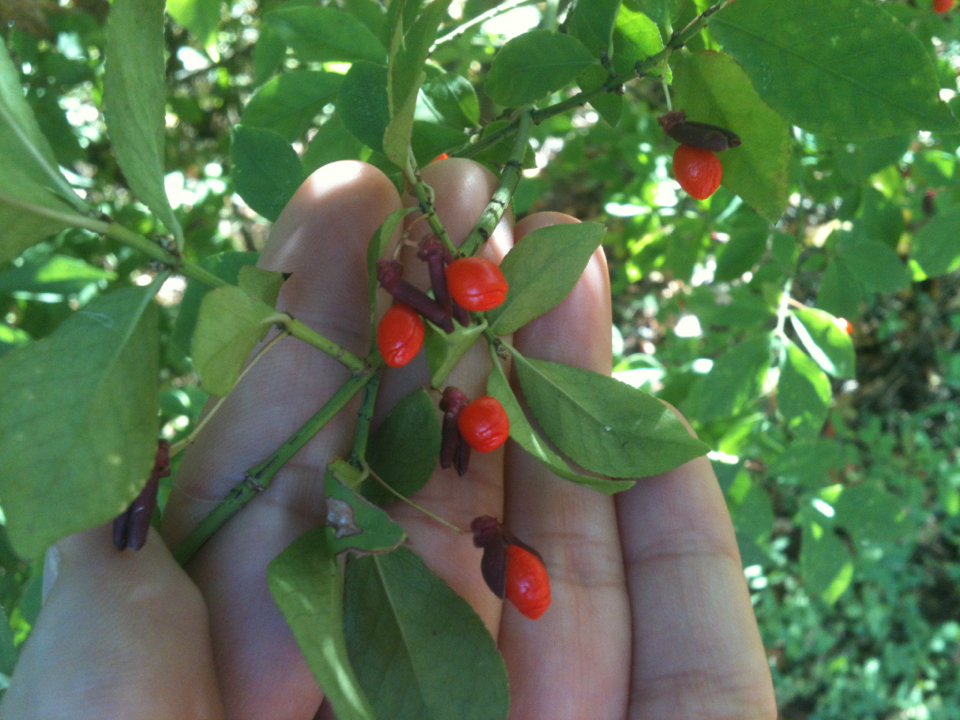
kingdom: Plantae
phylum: Tracheophyta
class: Magnoliopsida
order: Celastrales
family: Celastraceae
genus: Euonymus
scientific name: Euonymus alatus
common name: Winged euonymus
